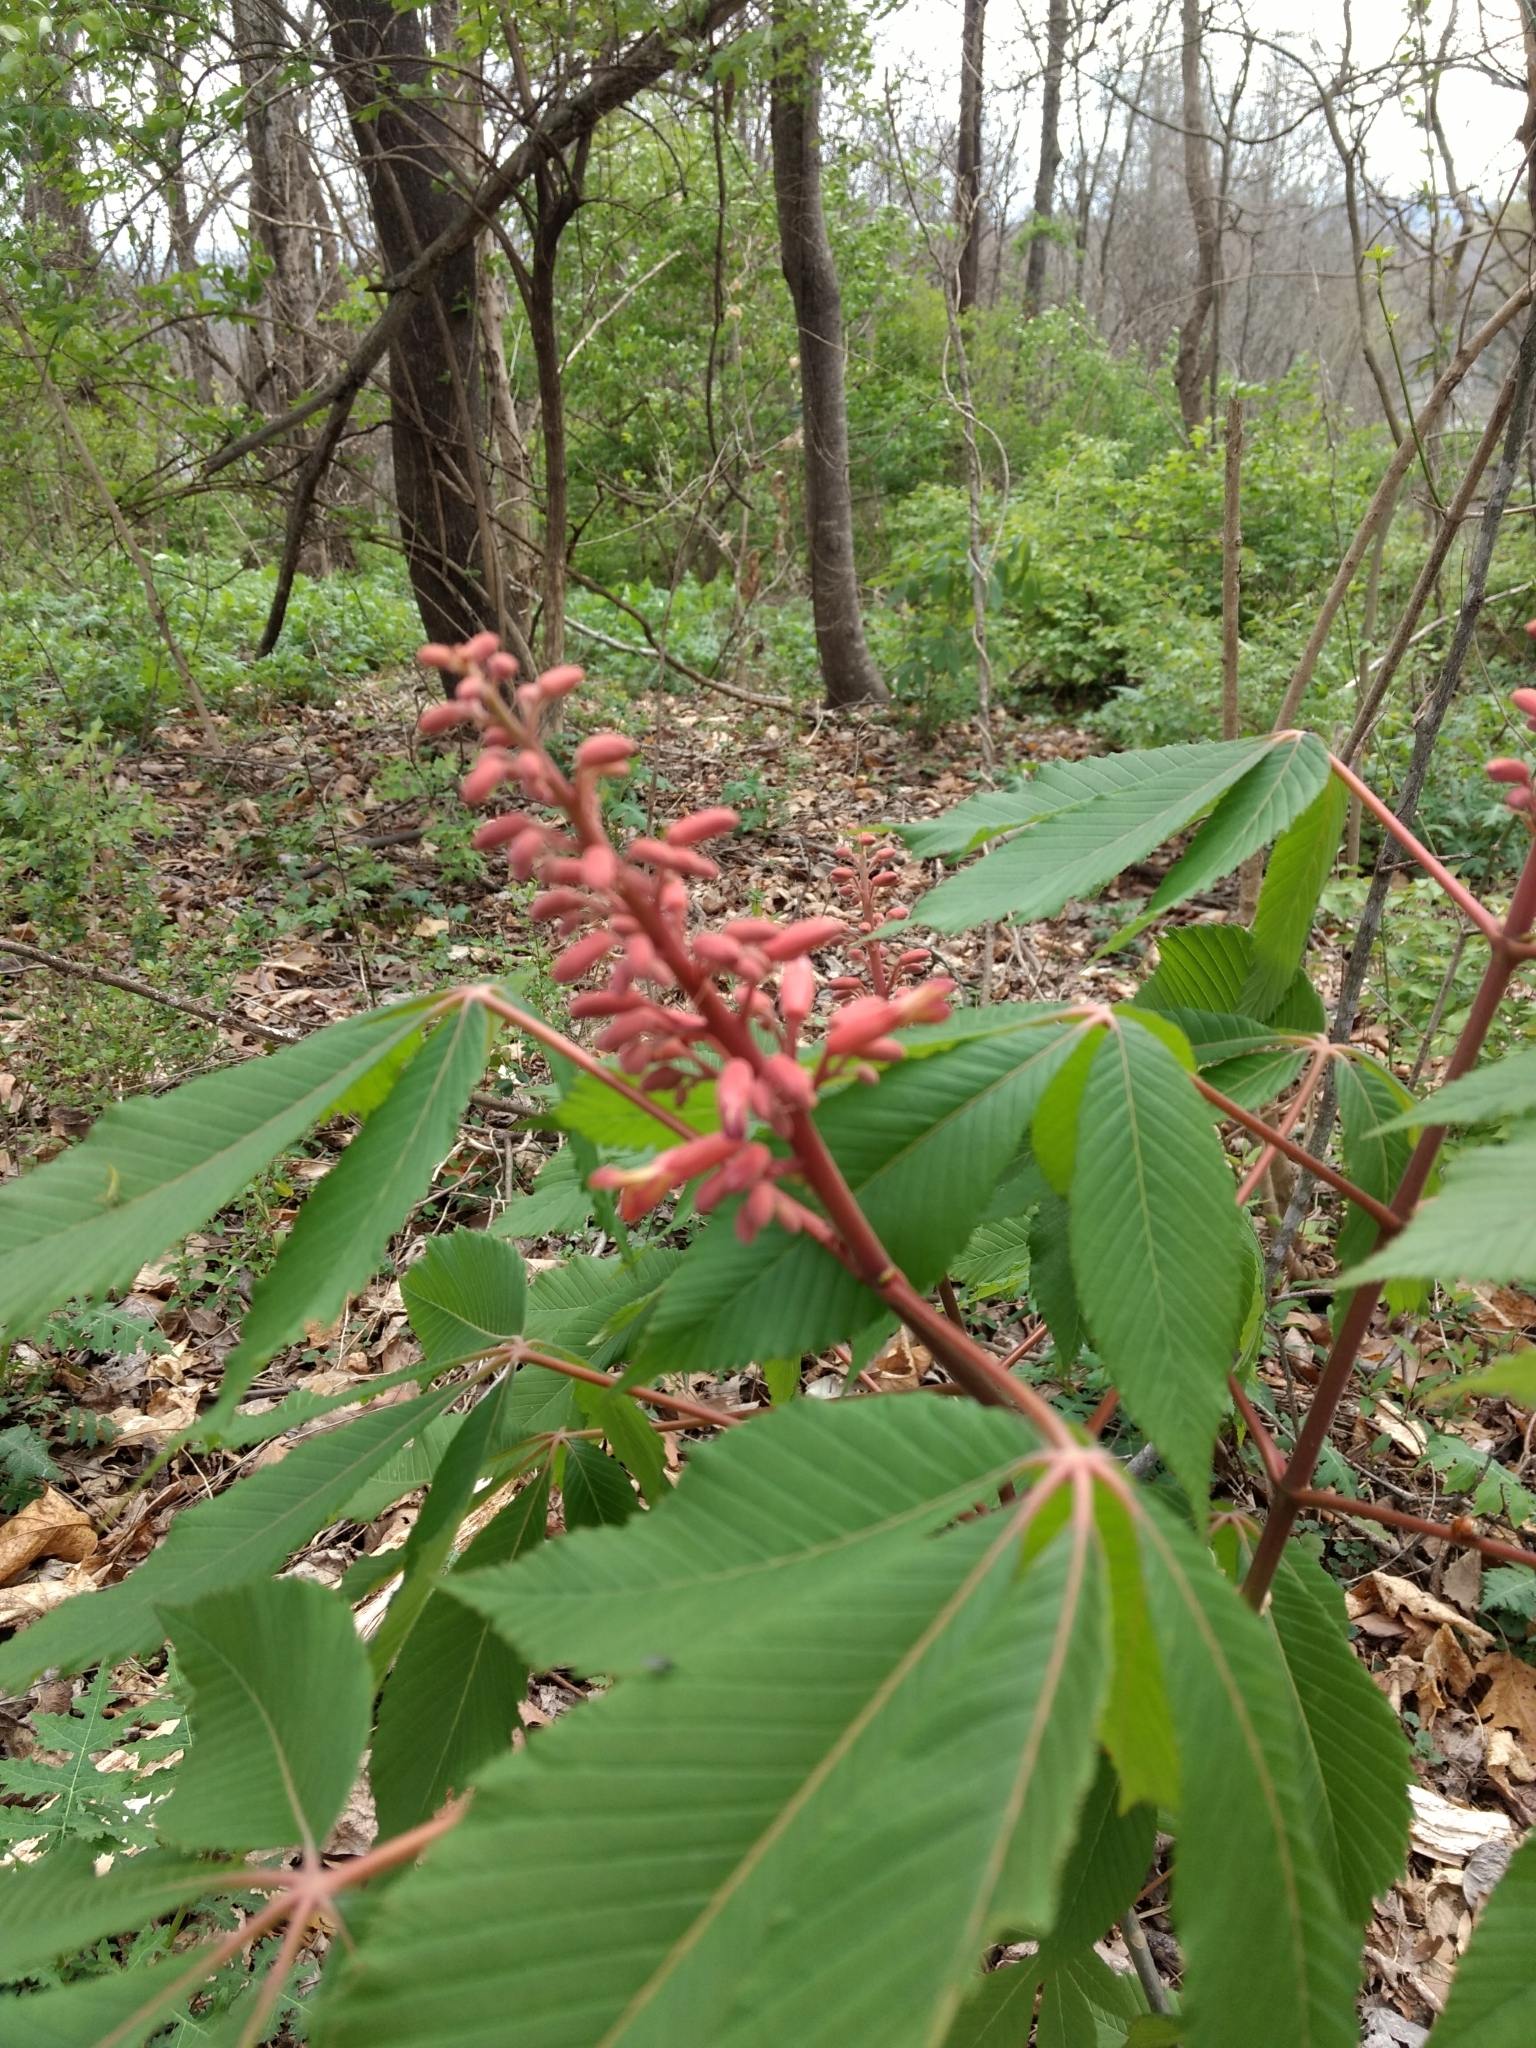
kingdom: Plantae
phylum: Tracheophyta
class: Magnoliopsida
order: Sapindales
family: Sapindaceae
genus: Aesculus
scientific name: Aesculus pavia
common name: Red buckeye
